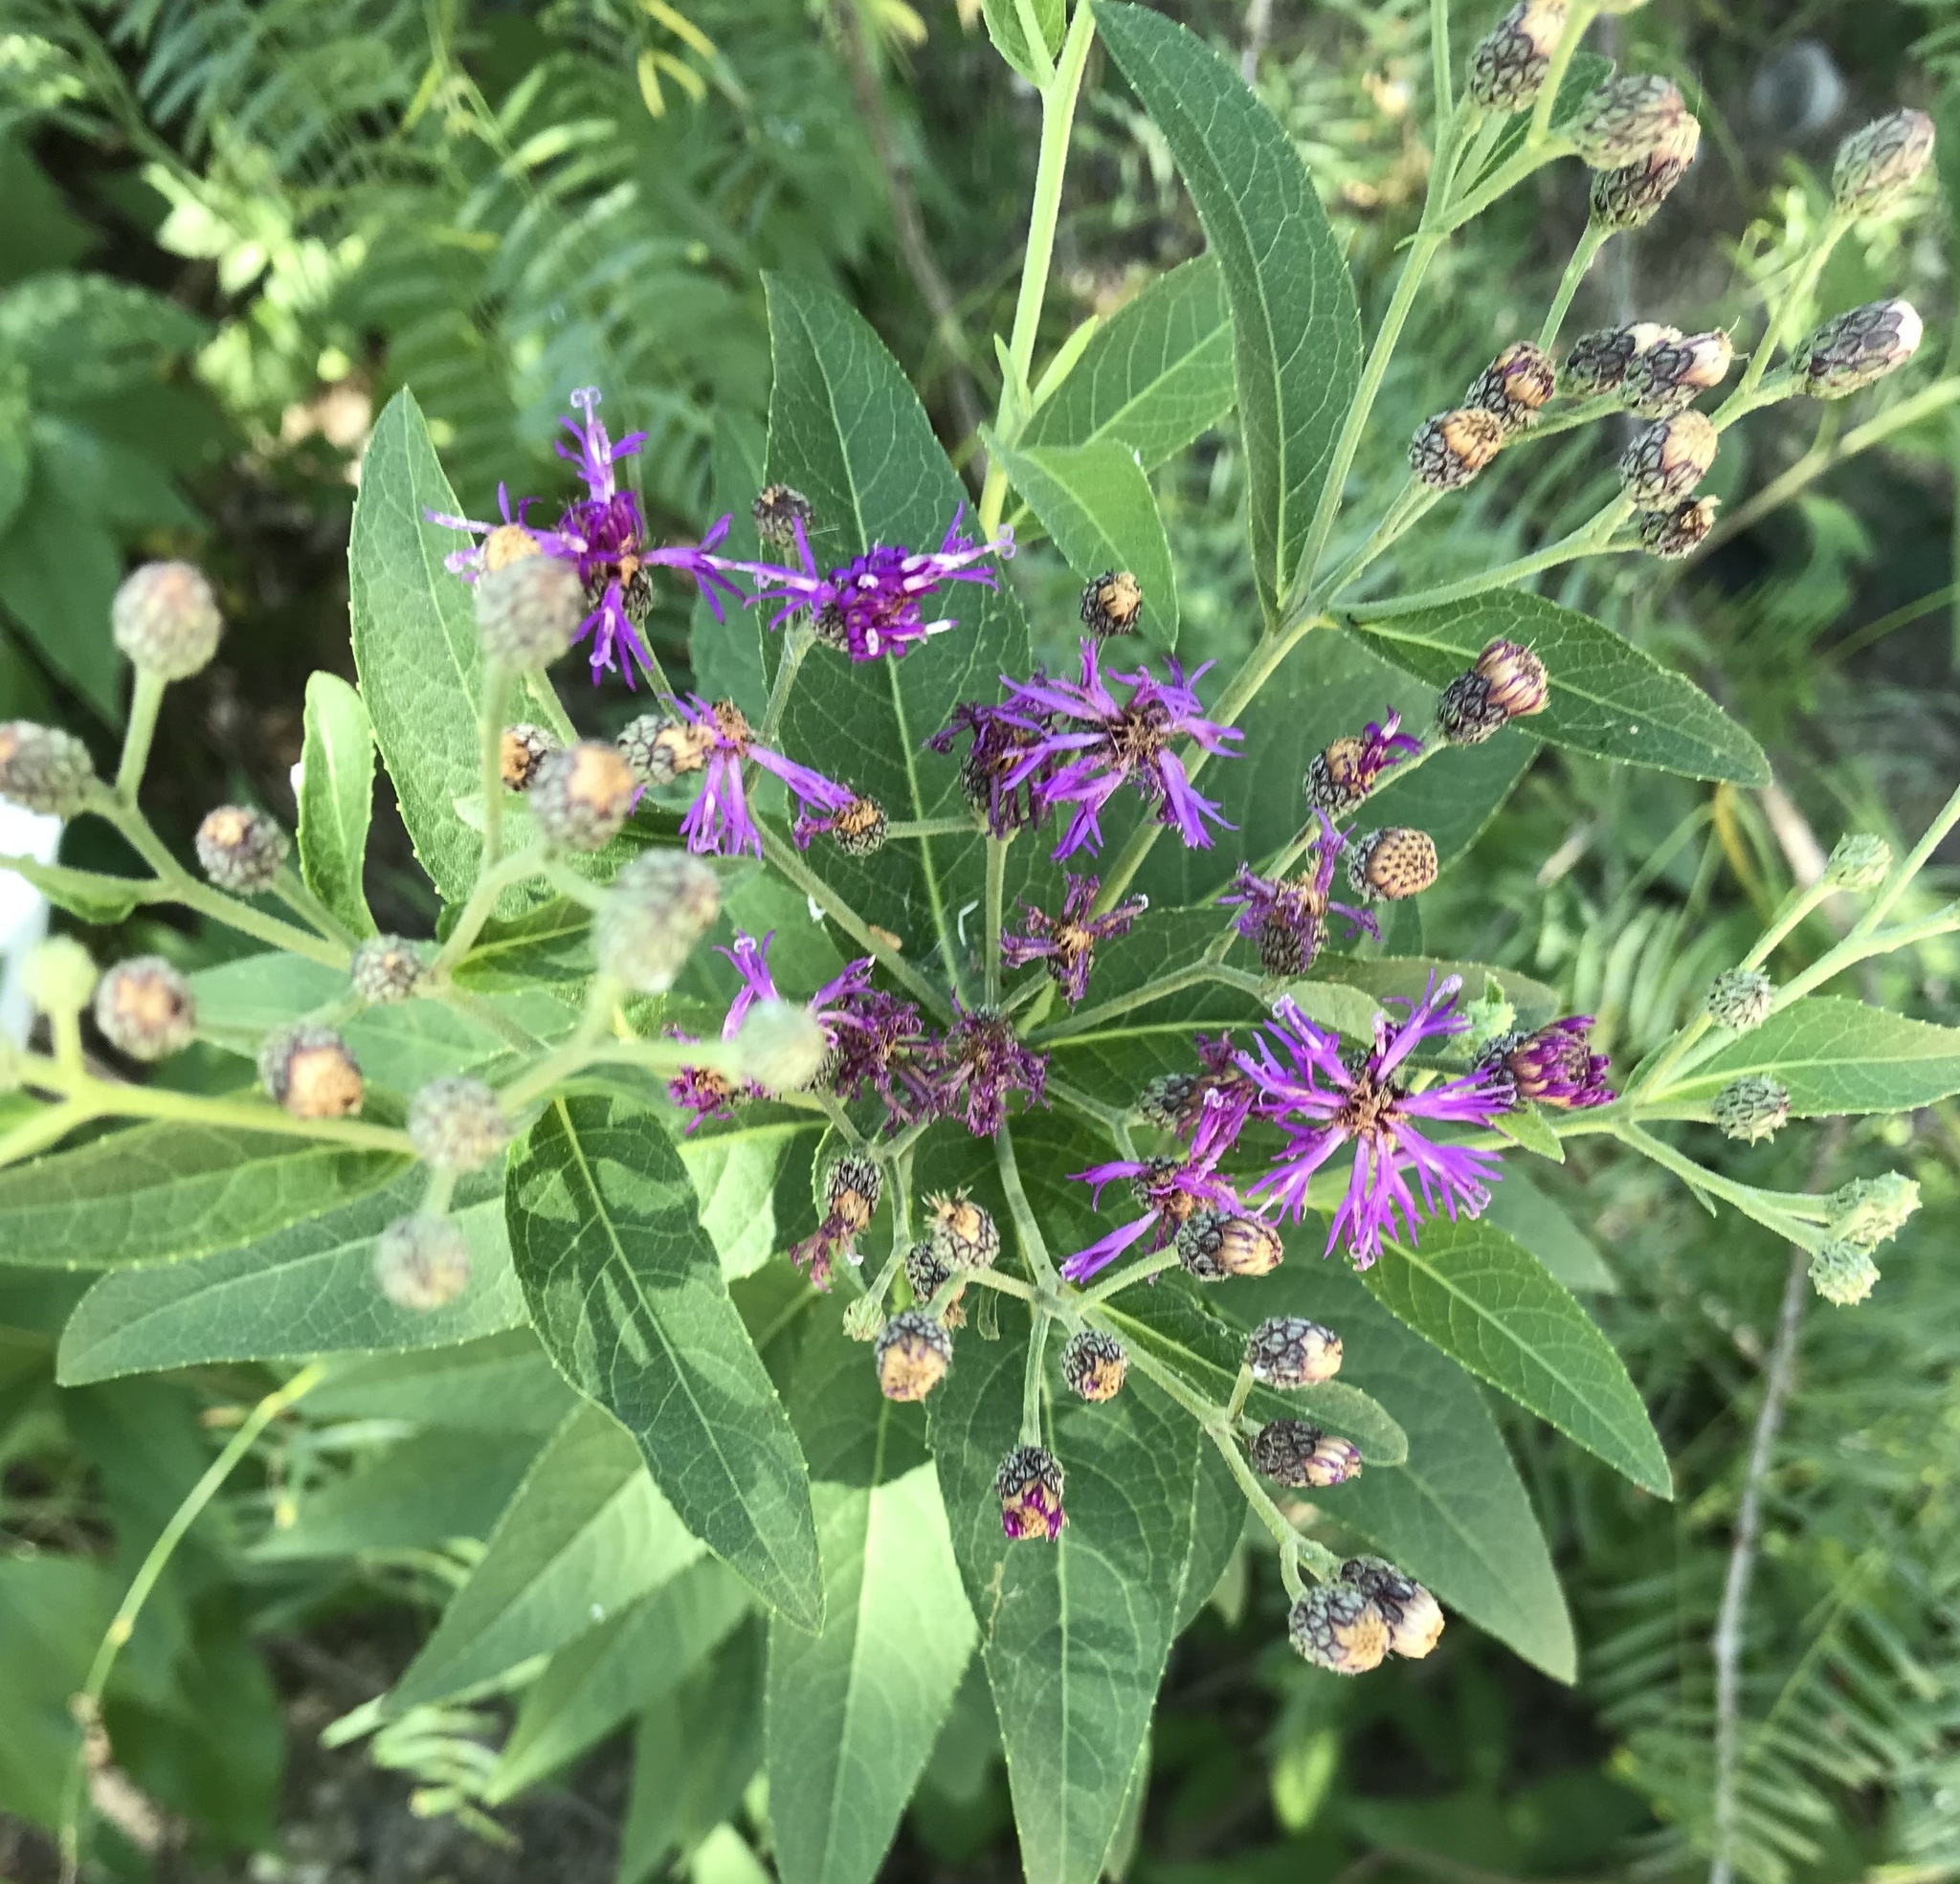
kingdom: Plantae
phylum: Tracheophyta
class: Magnoliopsida
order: Asterales
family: Asteraceae
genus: Vernonia
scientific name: Vernonia baldwinii
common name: Western ironweed
